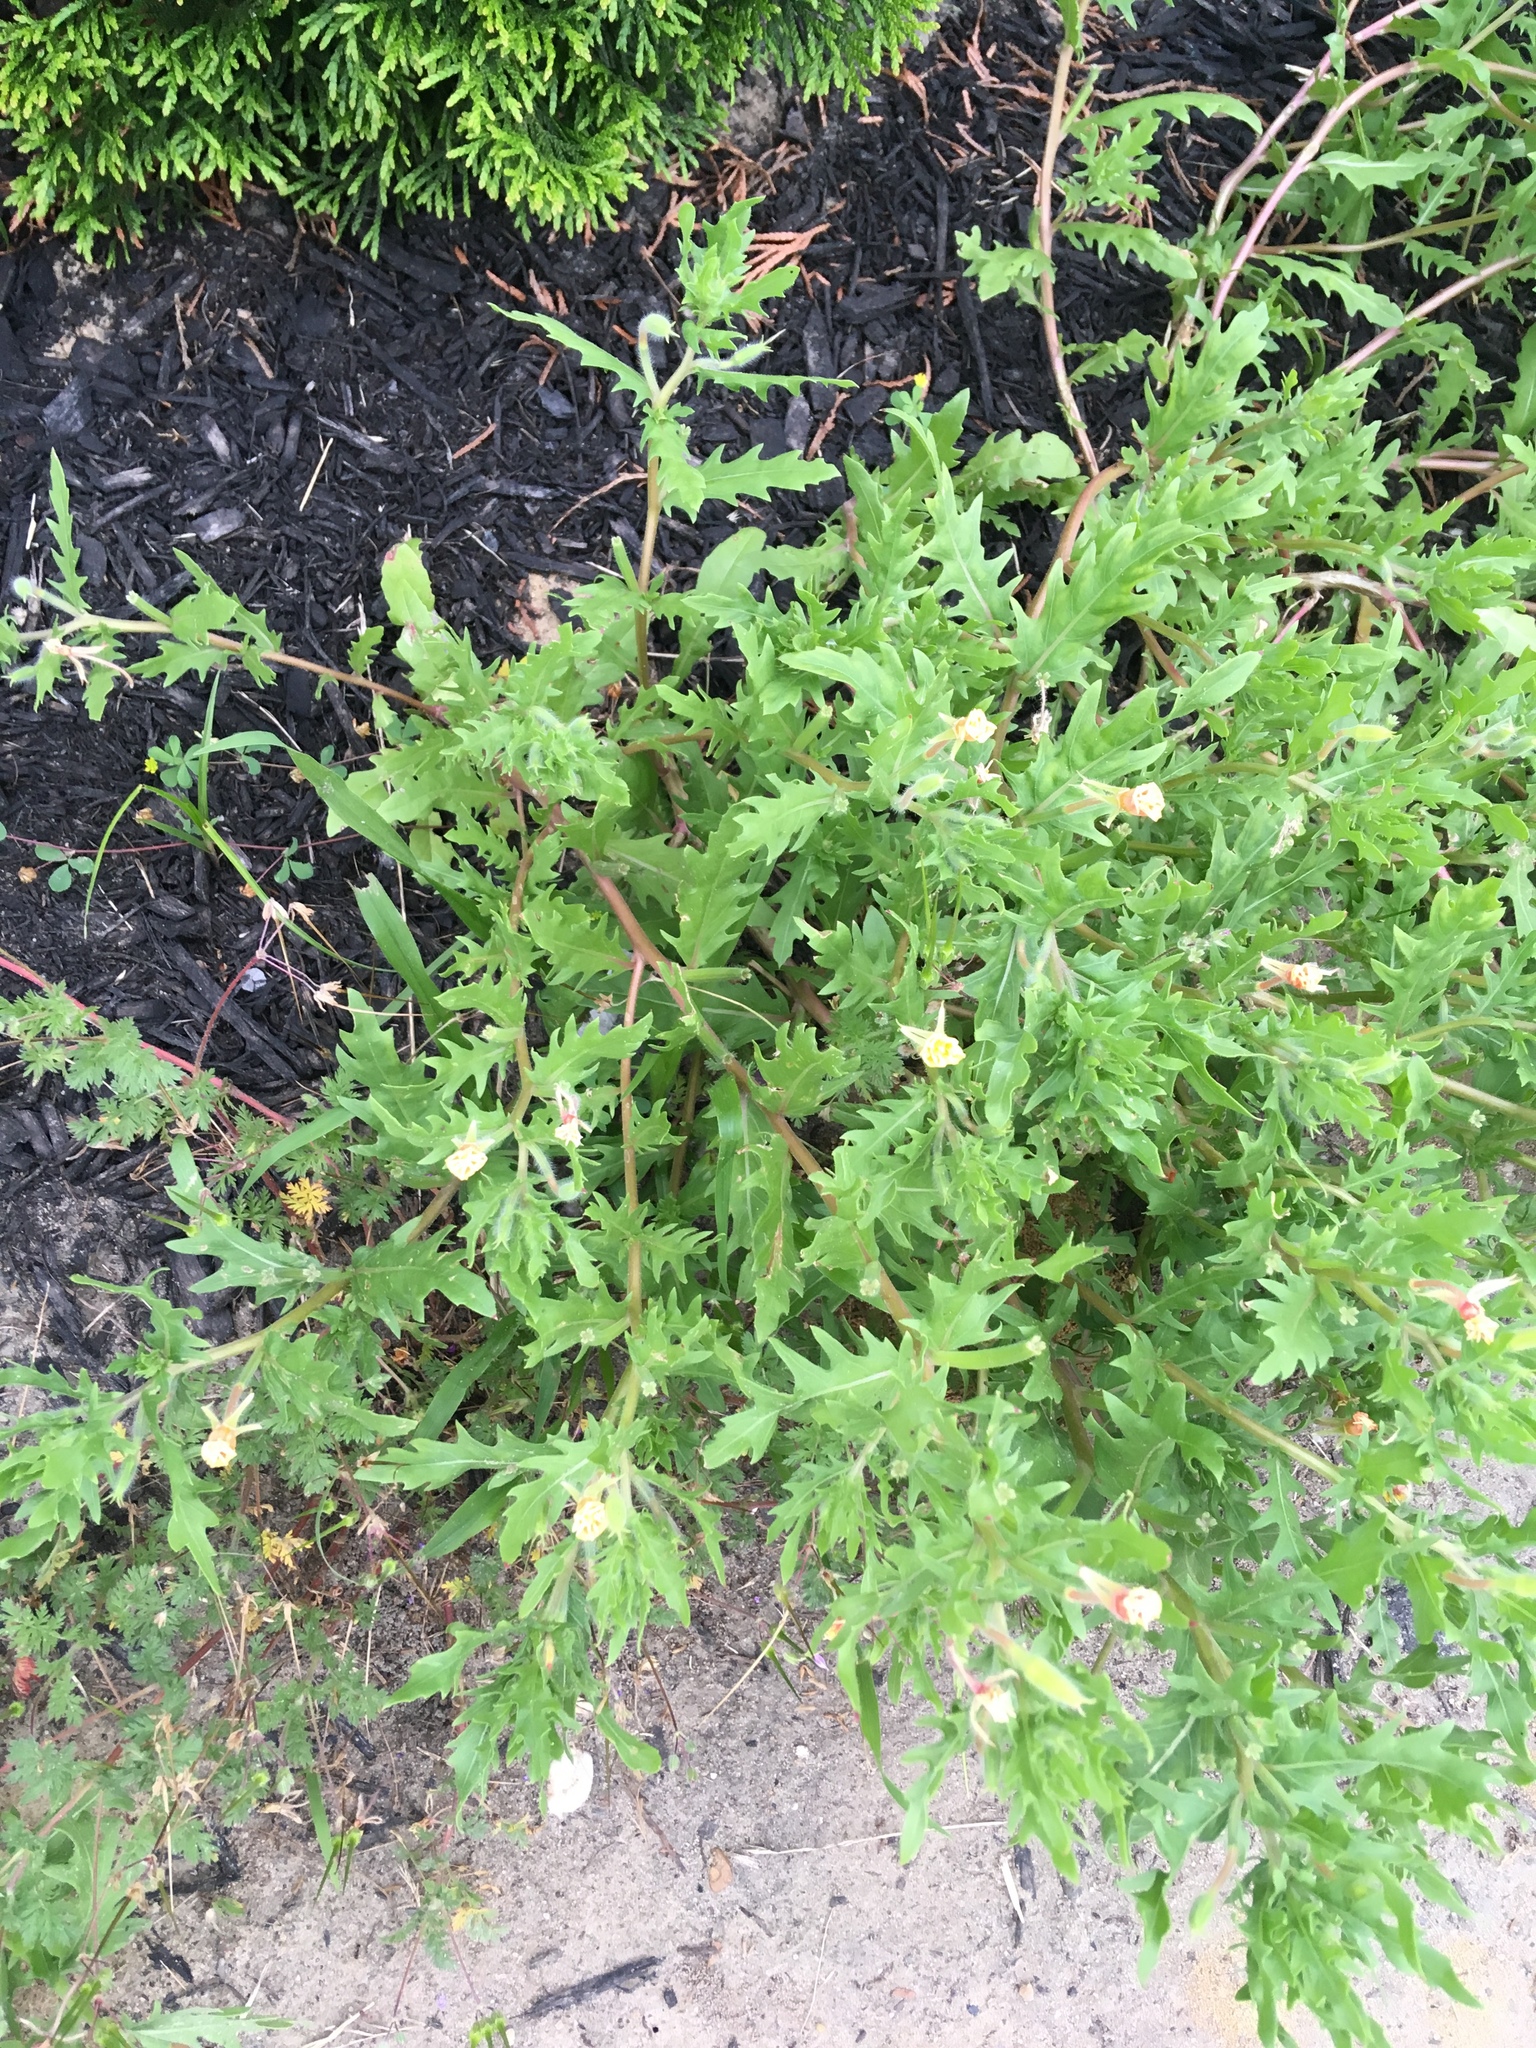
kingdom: Plantae
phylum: Tracheophyta
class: Magnoliopsida
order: Myrtales
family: Onagraceae
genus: Oenothera
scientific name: Oenothera laciniata
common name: Cut-leaved evening-primrose
